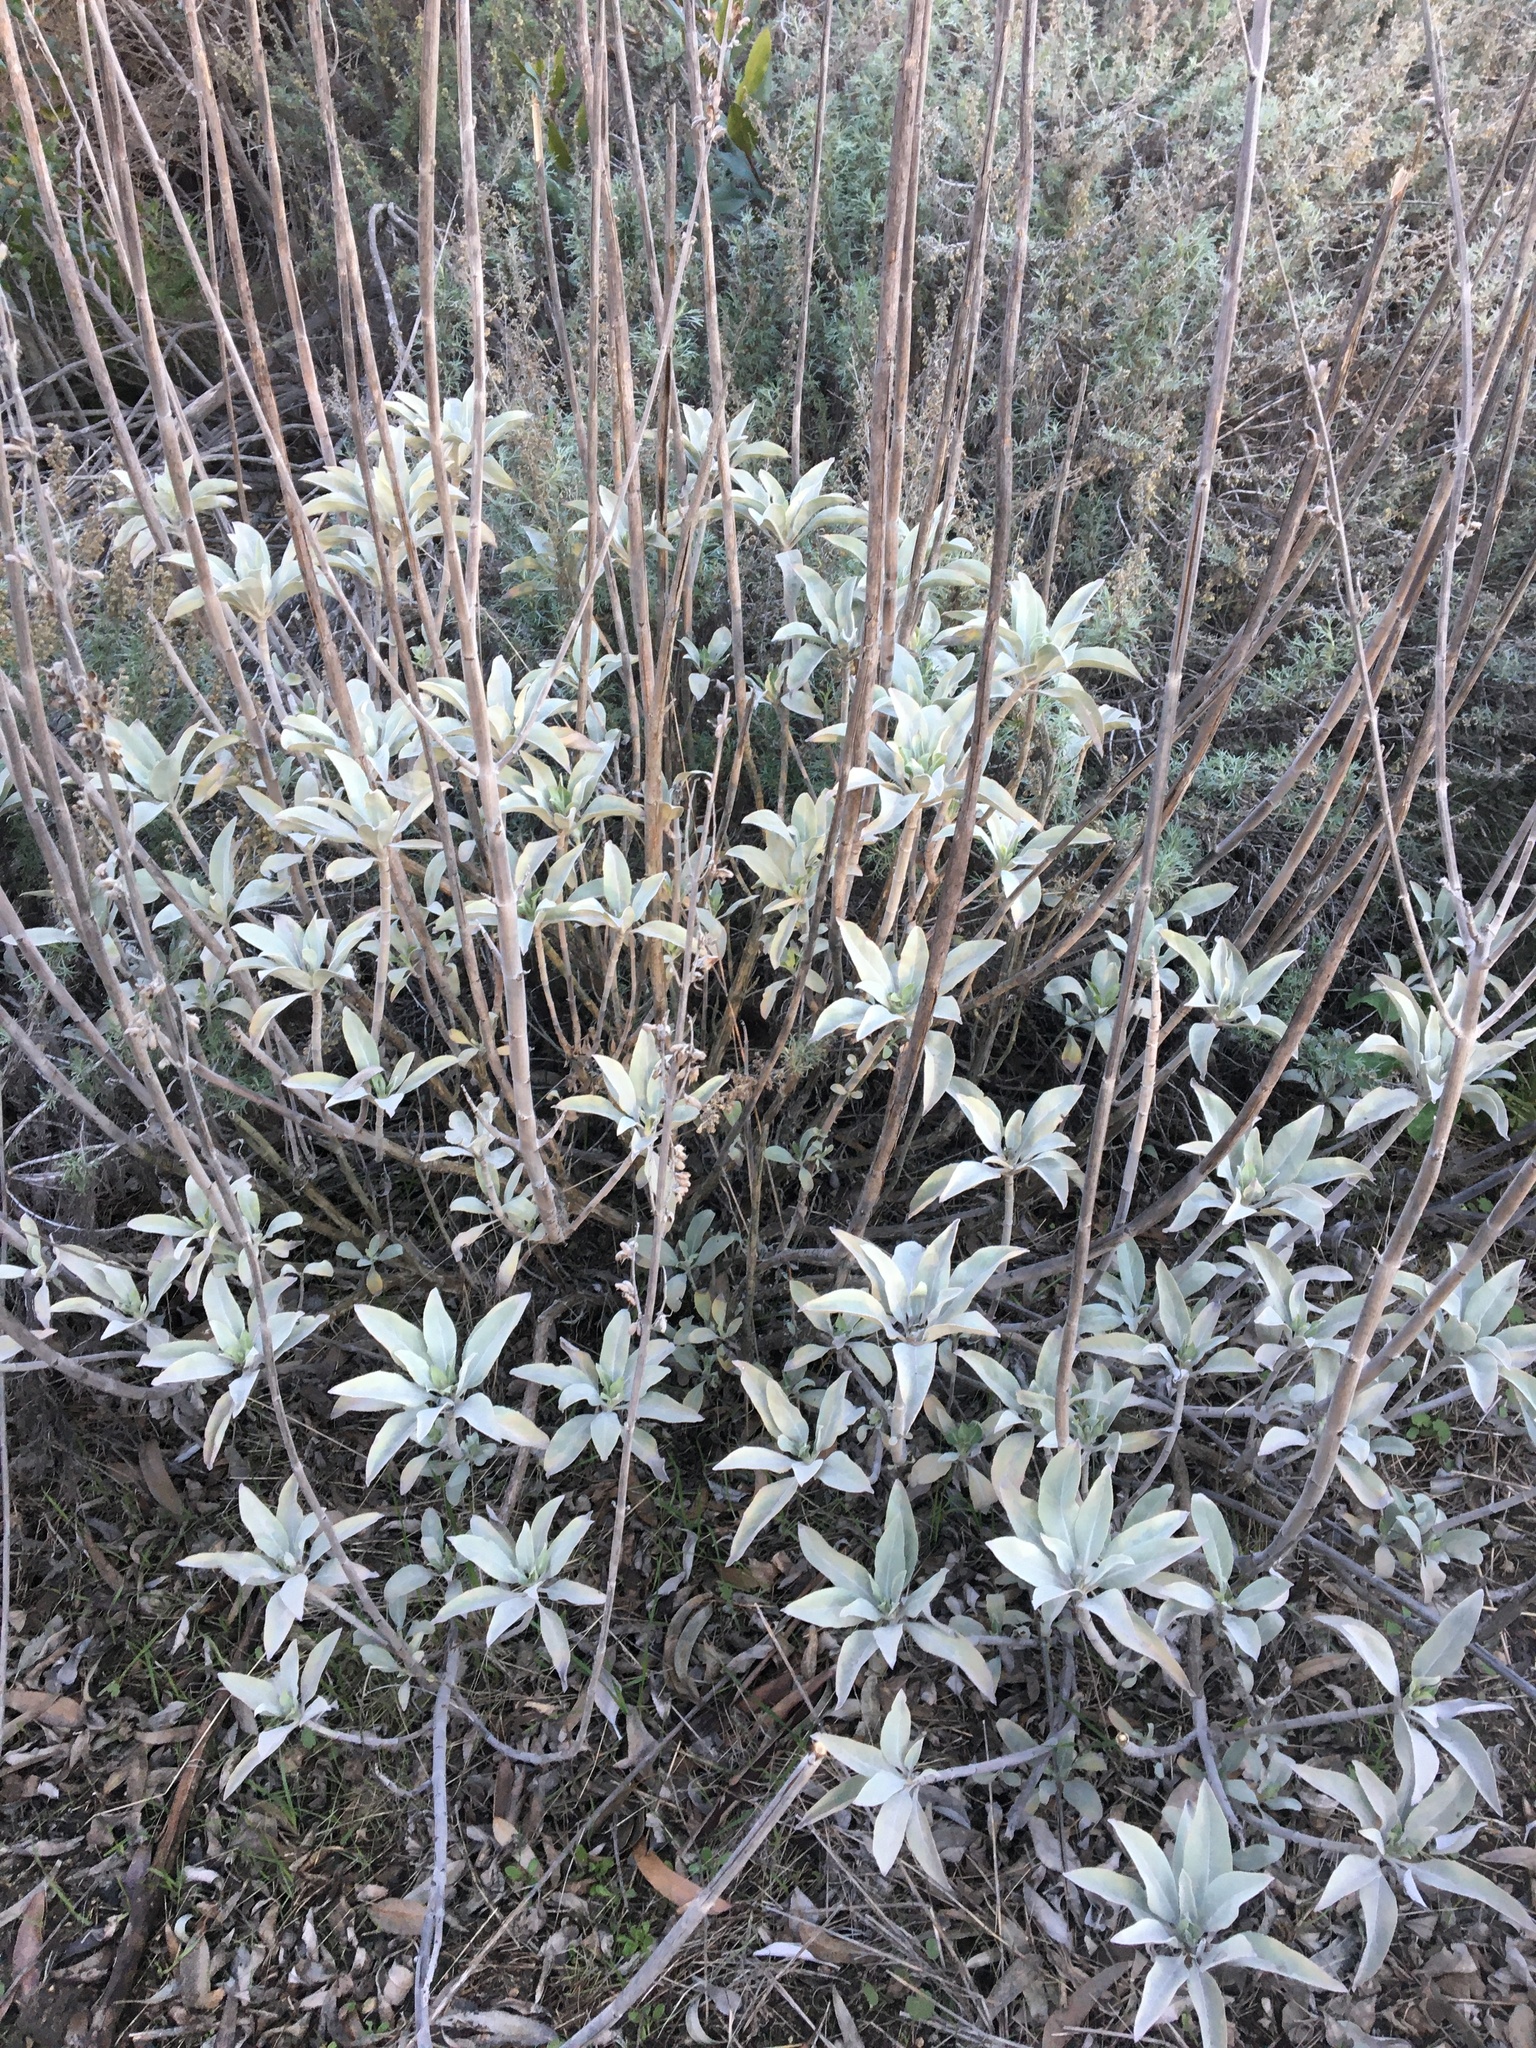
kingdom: Plantae
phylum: Tracheophyta
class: Magnoliopsida
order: Lamiales
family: Lamiaceae
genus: Salvia
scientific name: Salvia apiana
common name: White sage
